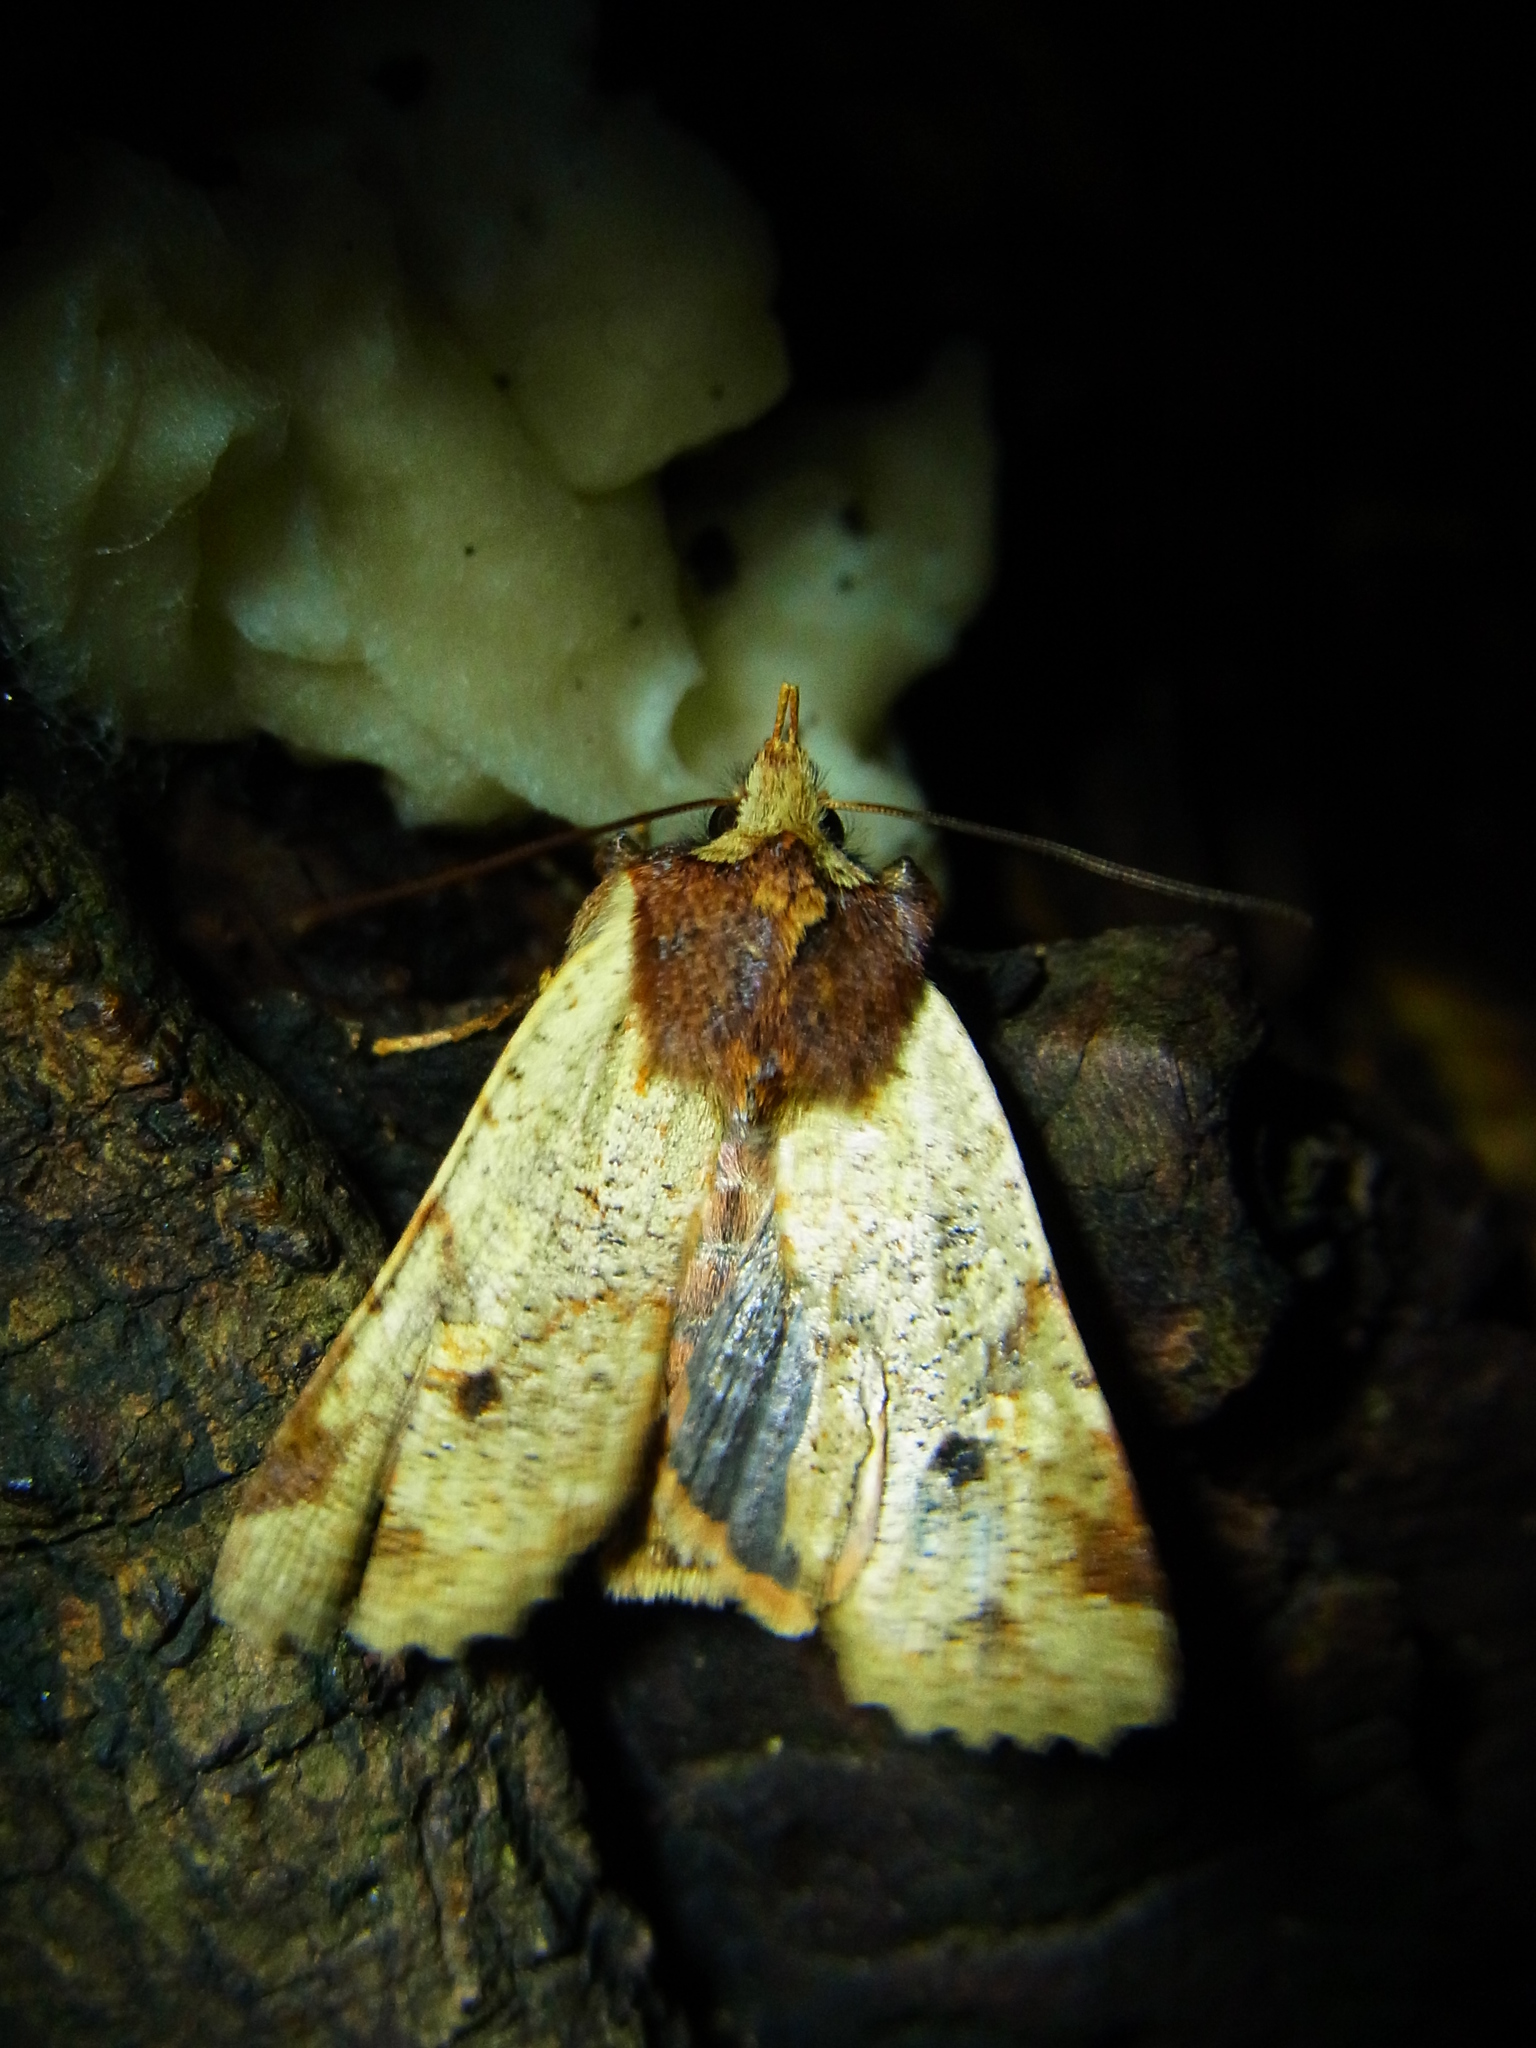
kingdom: Animalia
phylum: Arthropoda
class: Insecta
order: Lepidoptera
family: Noctuidae
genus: Rhynchaglaea
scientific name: Rhynchaglaea scitula
